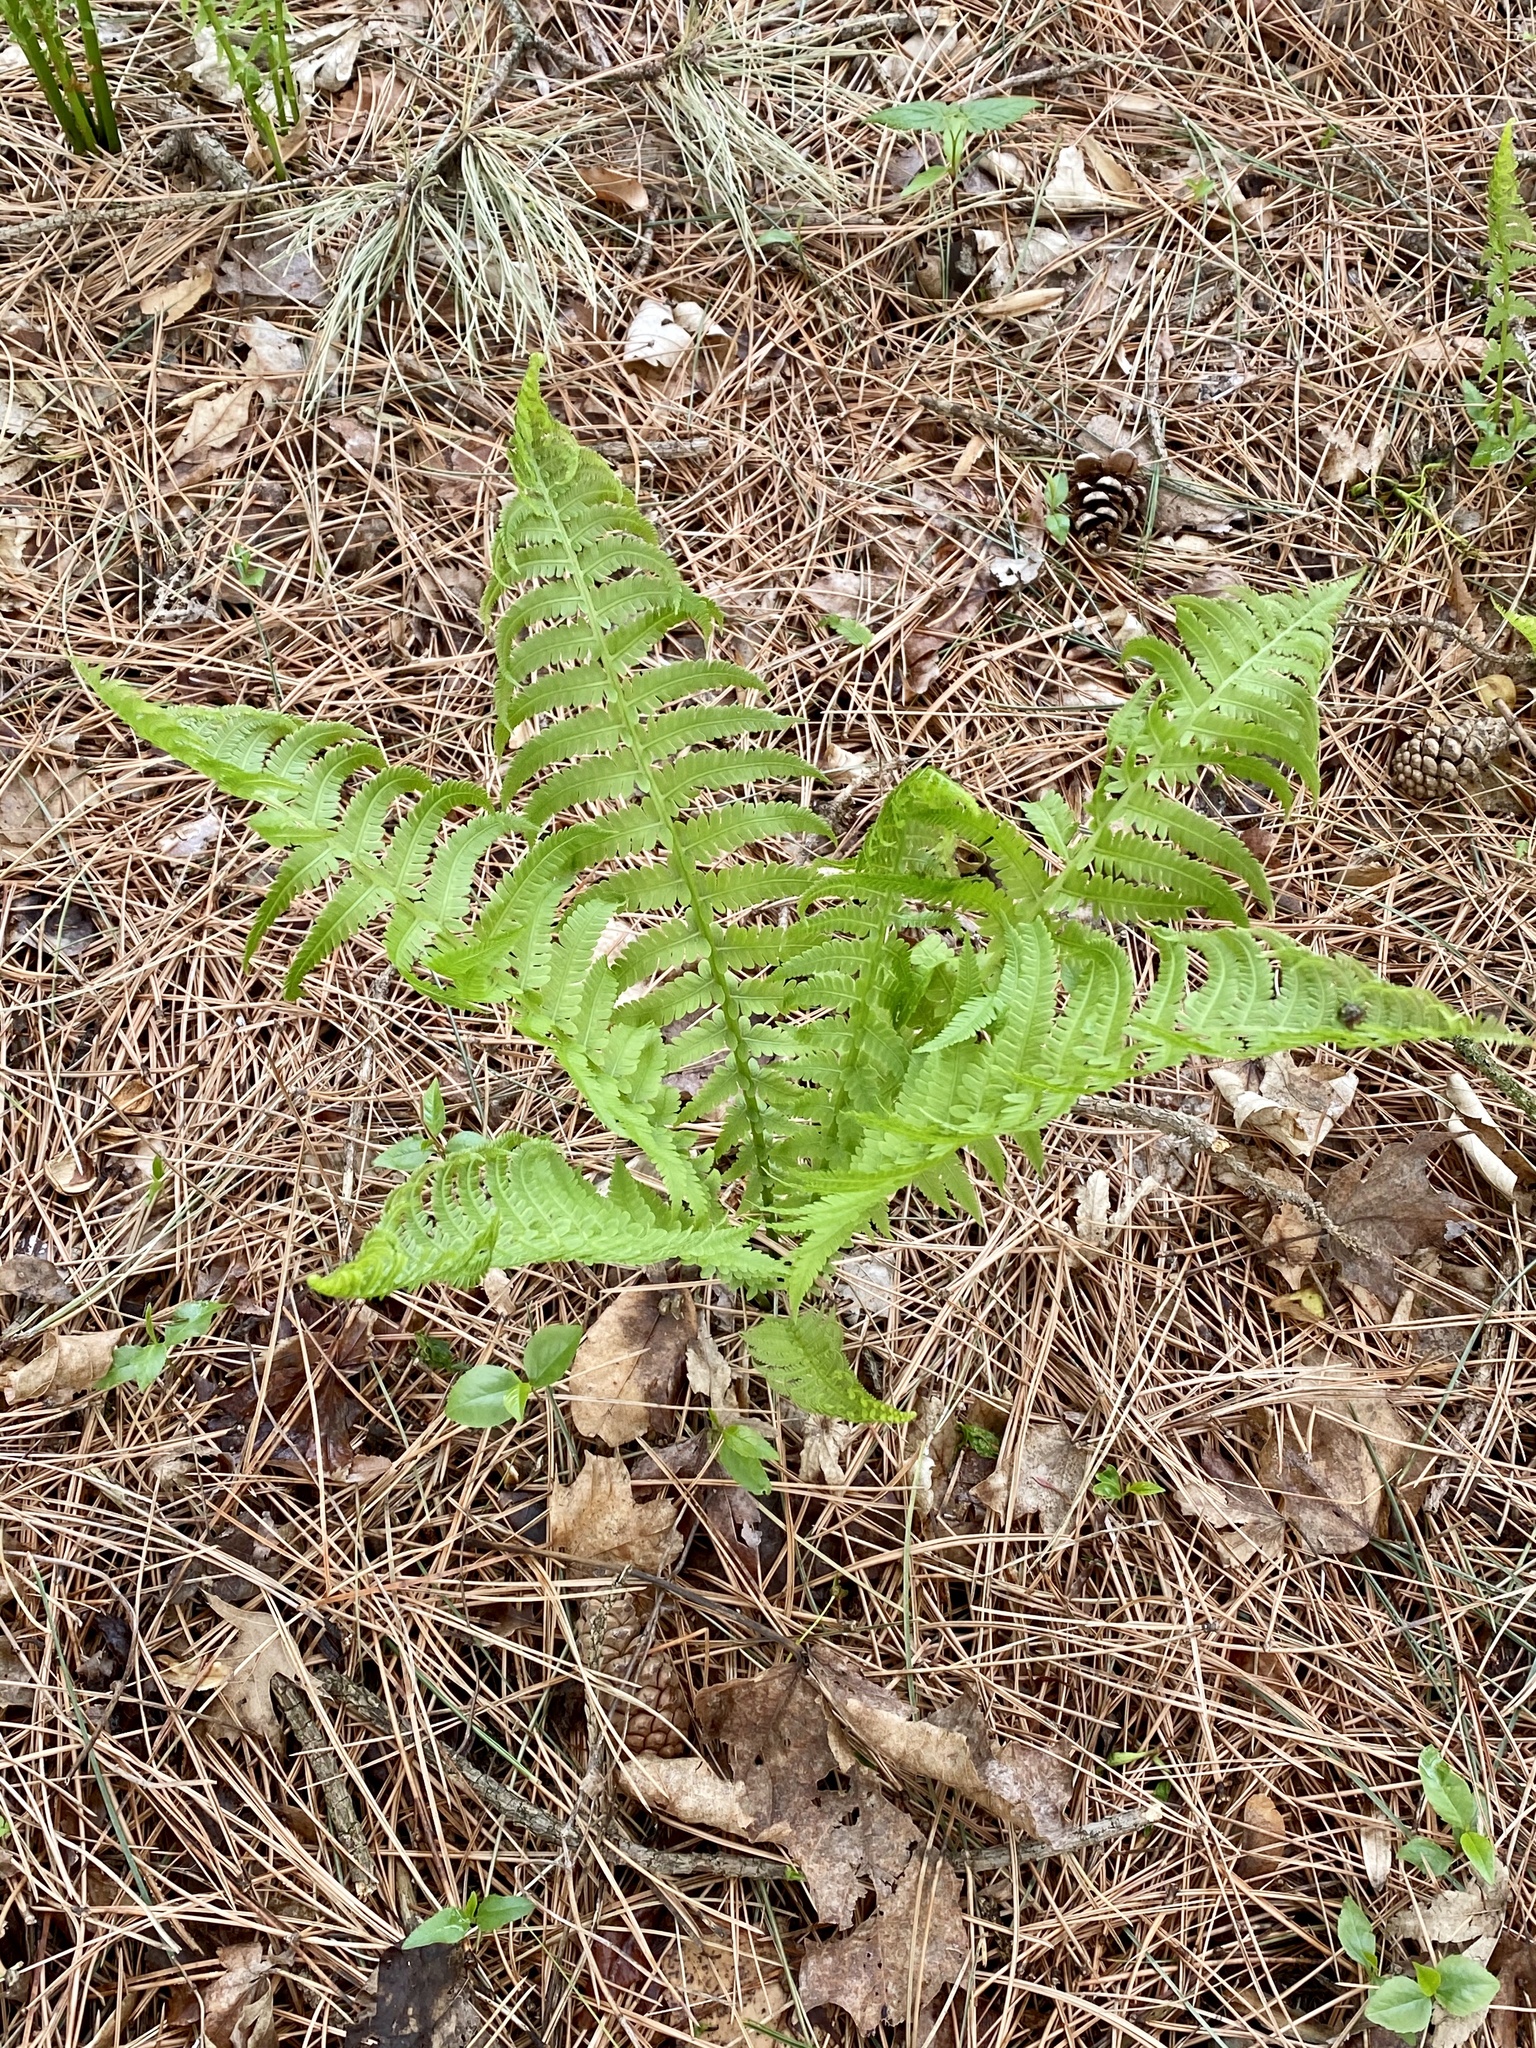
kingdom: Plantae
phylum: Tracheophyta
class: Polypodiopsida
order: Polypodiales
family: Onocleaceae
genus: Matteuccia
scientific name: Matteuccia struthiopteris
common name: Ostrich fern
